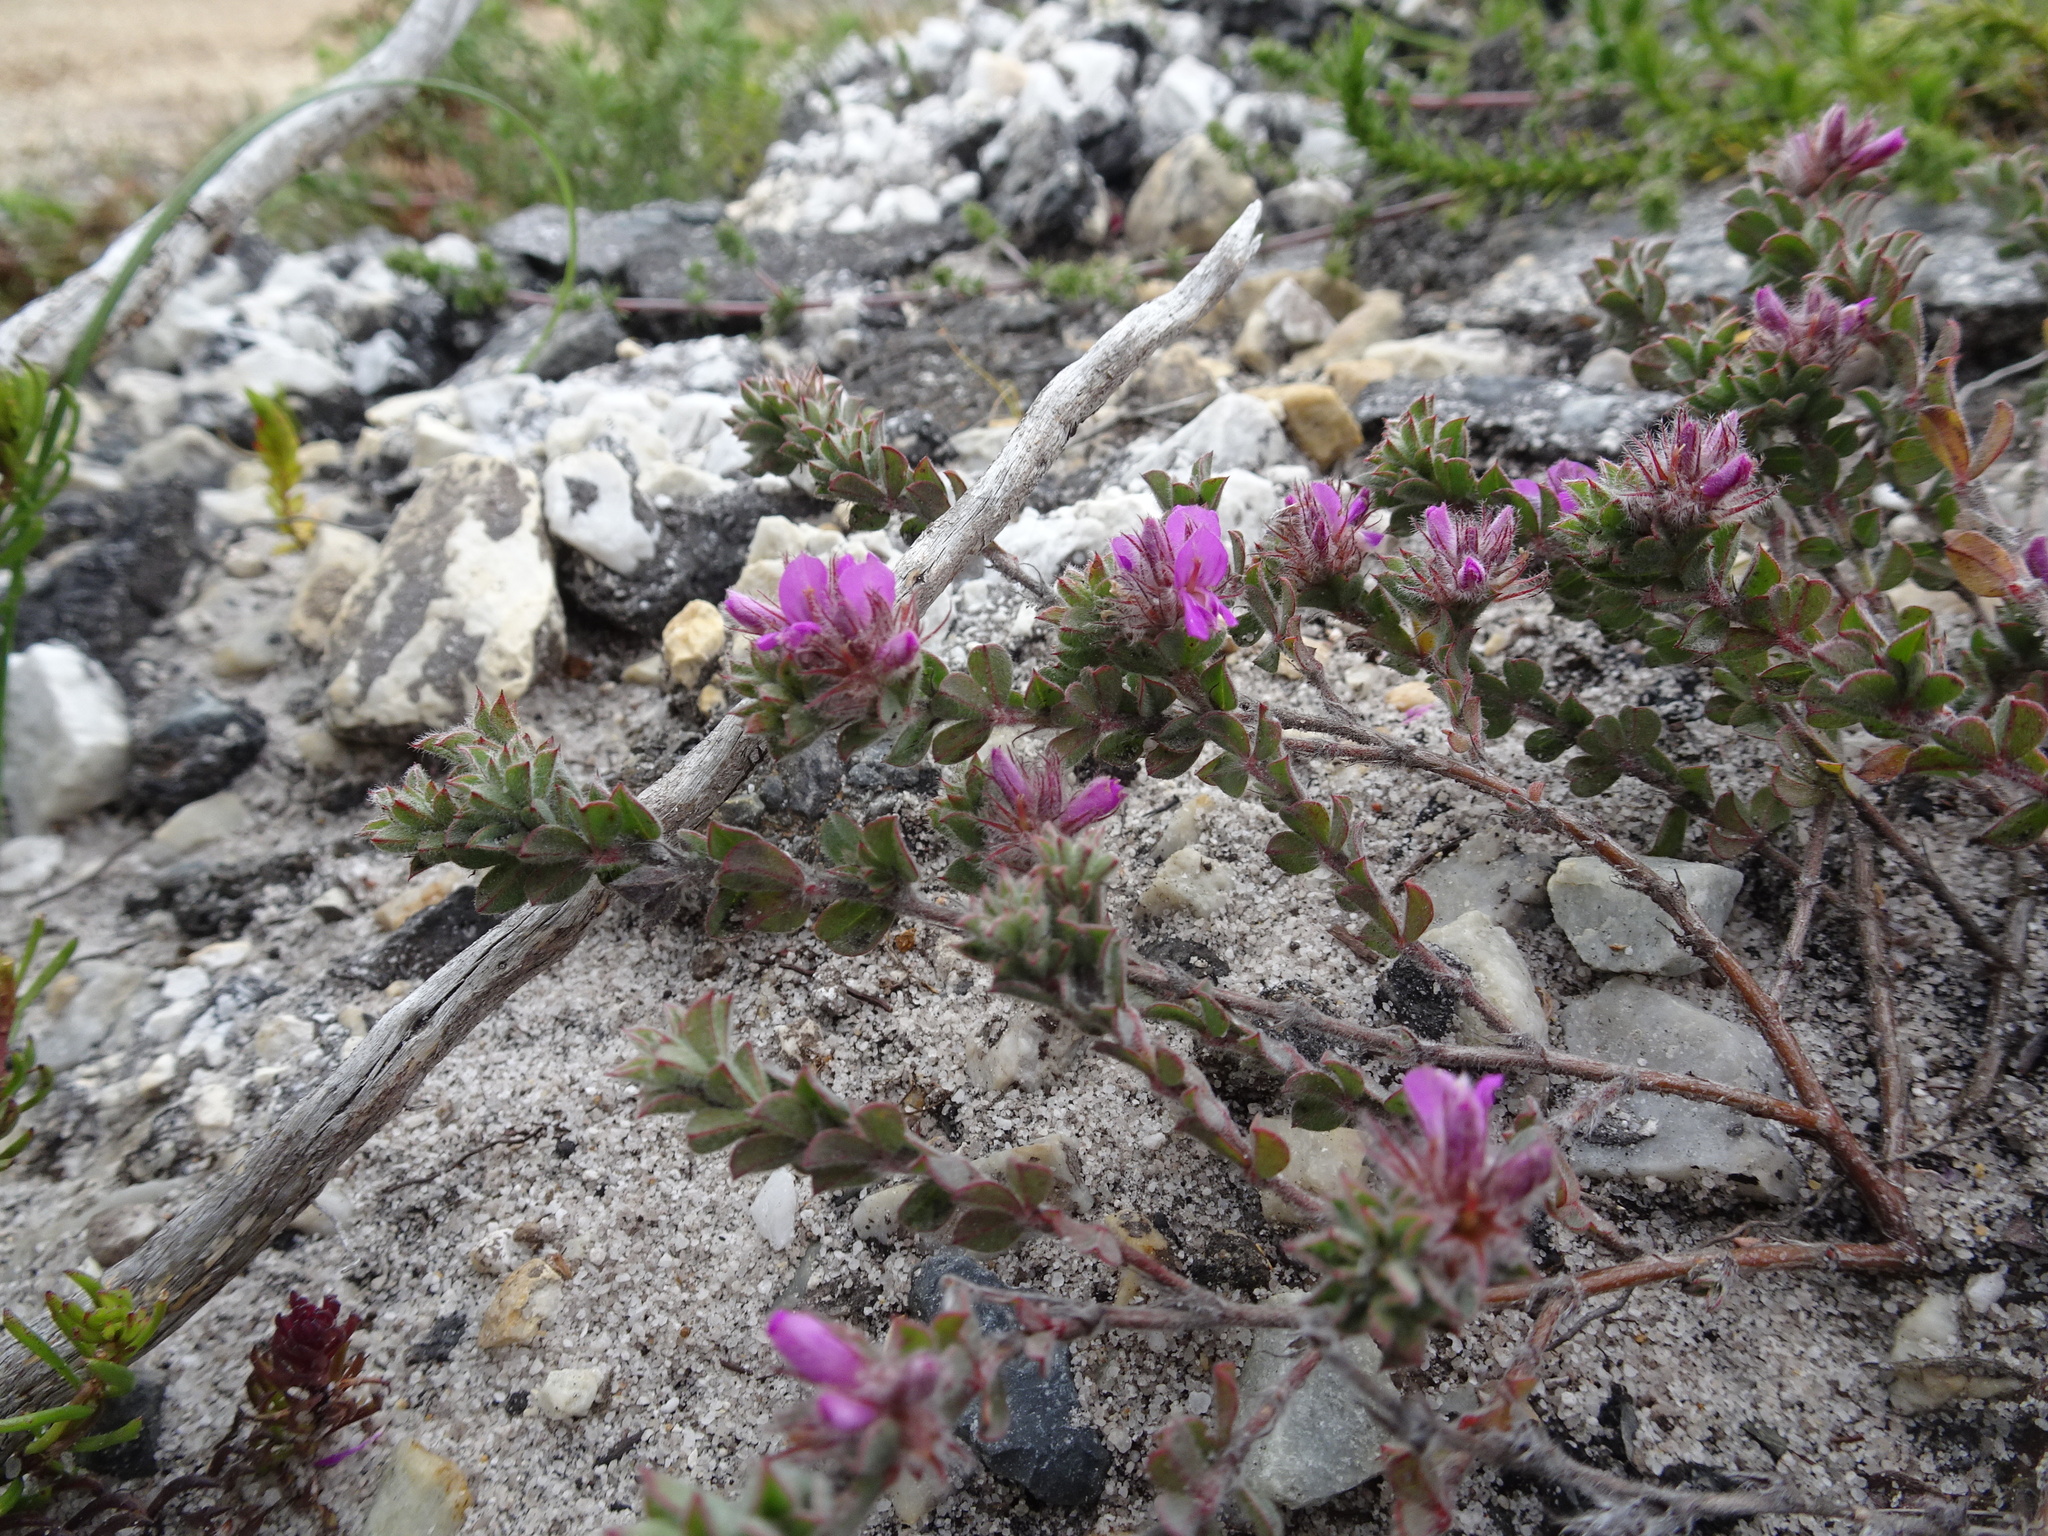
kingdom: Plantae
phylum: Tracheophyta
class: Magnoliopsida
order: Fabales
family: Fabaceae
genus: Indigofera
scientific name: Indigofera glomerata
